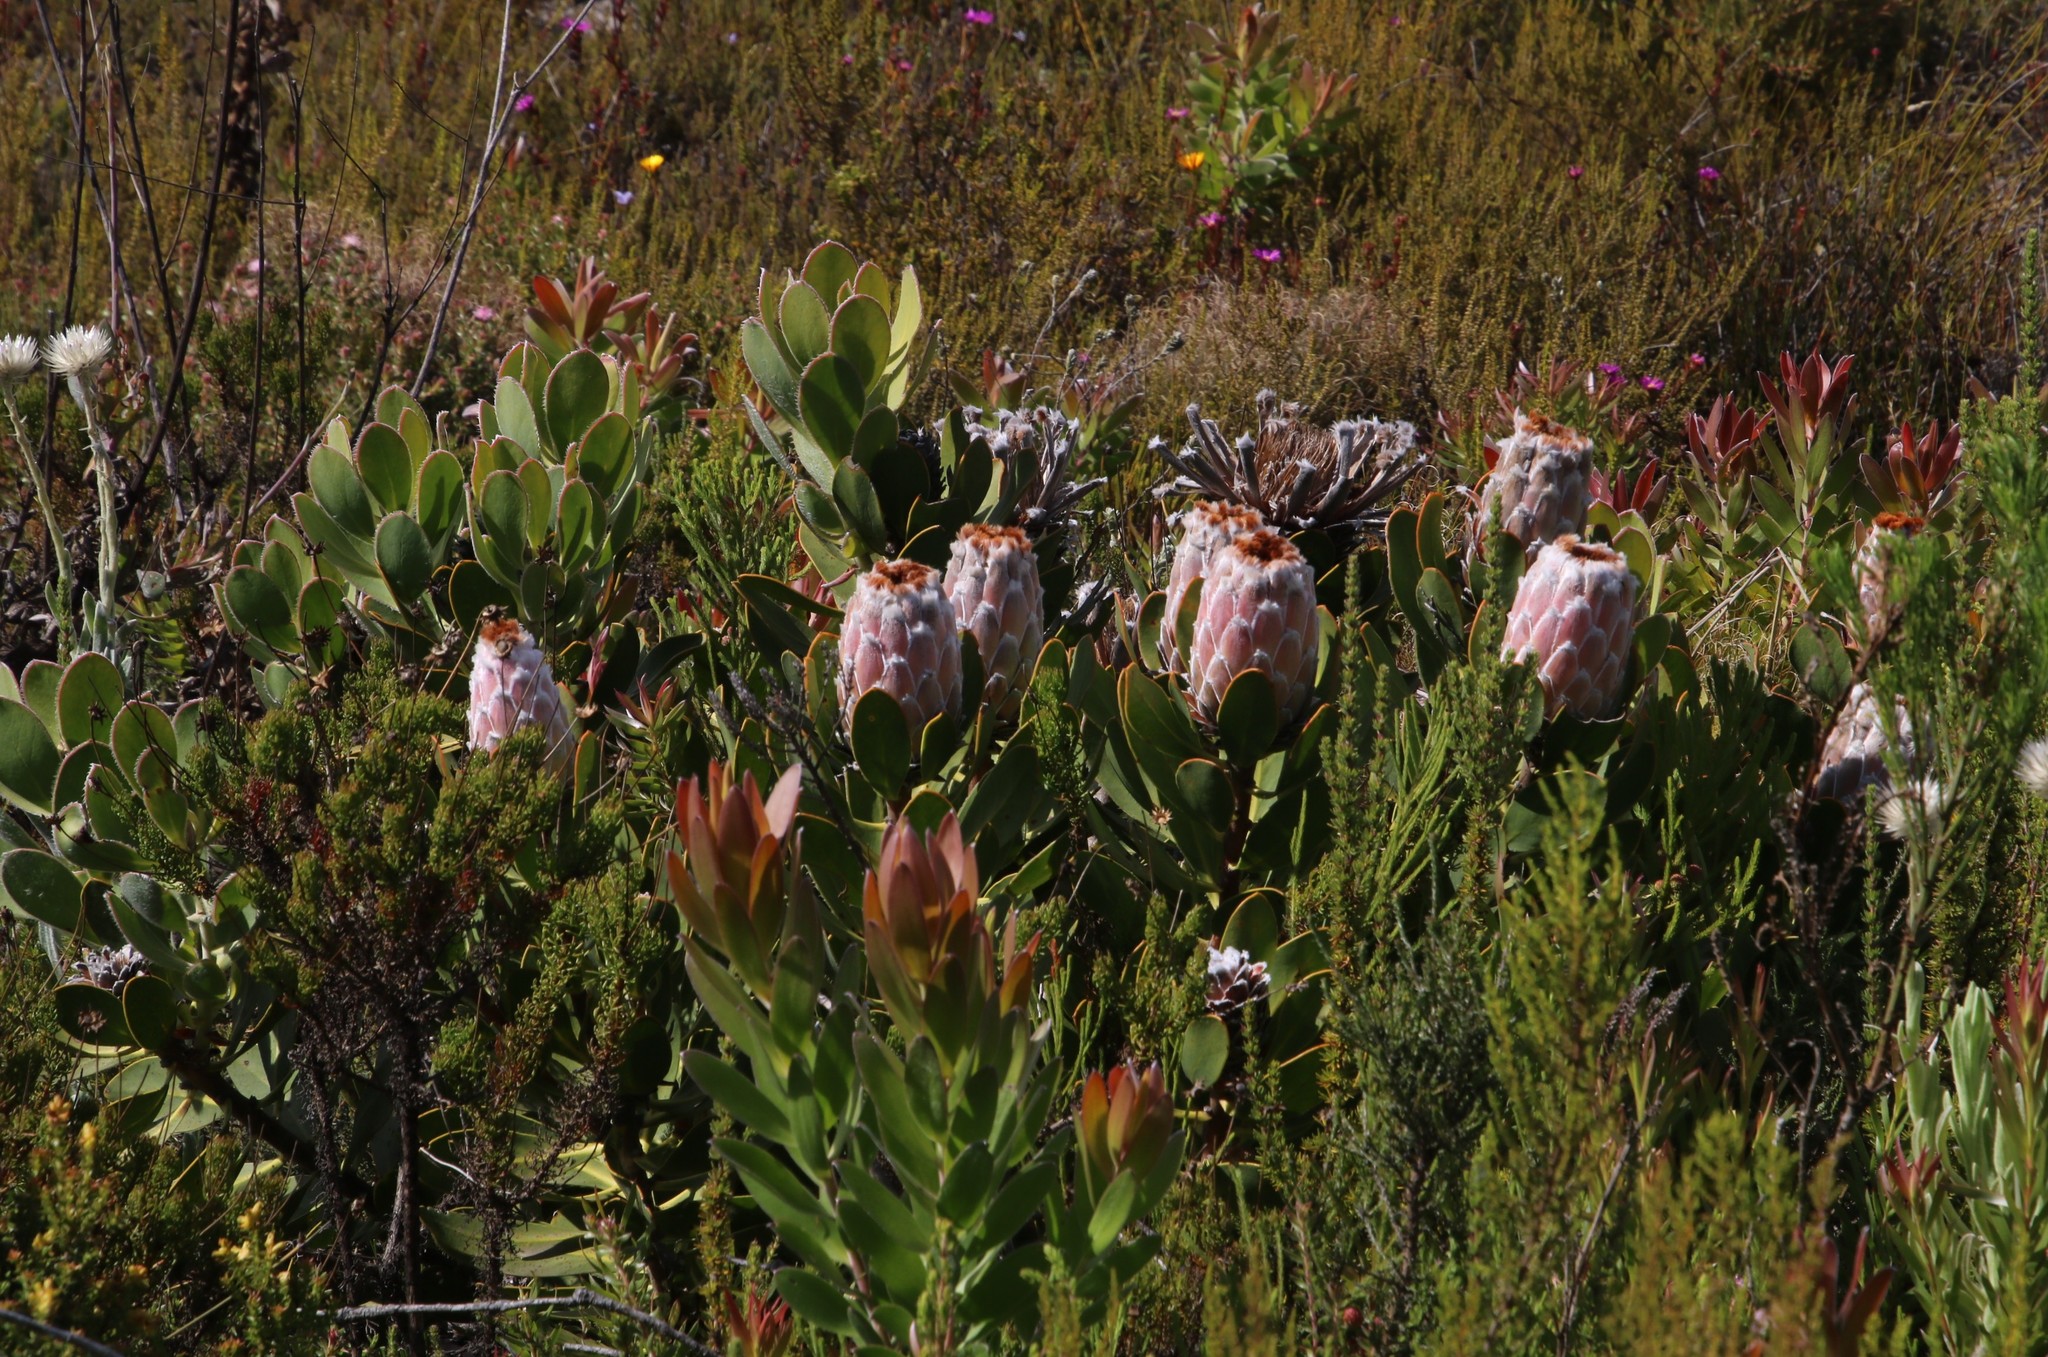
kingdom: Plantae
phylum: Tracheophyta
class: Magnoliopsida
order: Proteales
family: Proteaceae
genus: Protea
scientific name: Protea speciosa
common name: Brown-beard sugarbush
